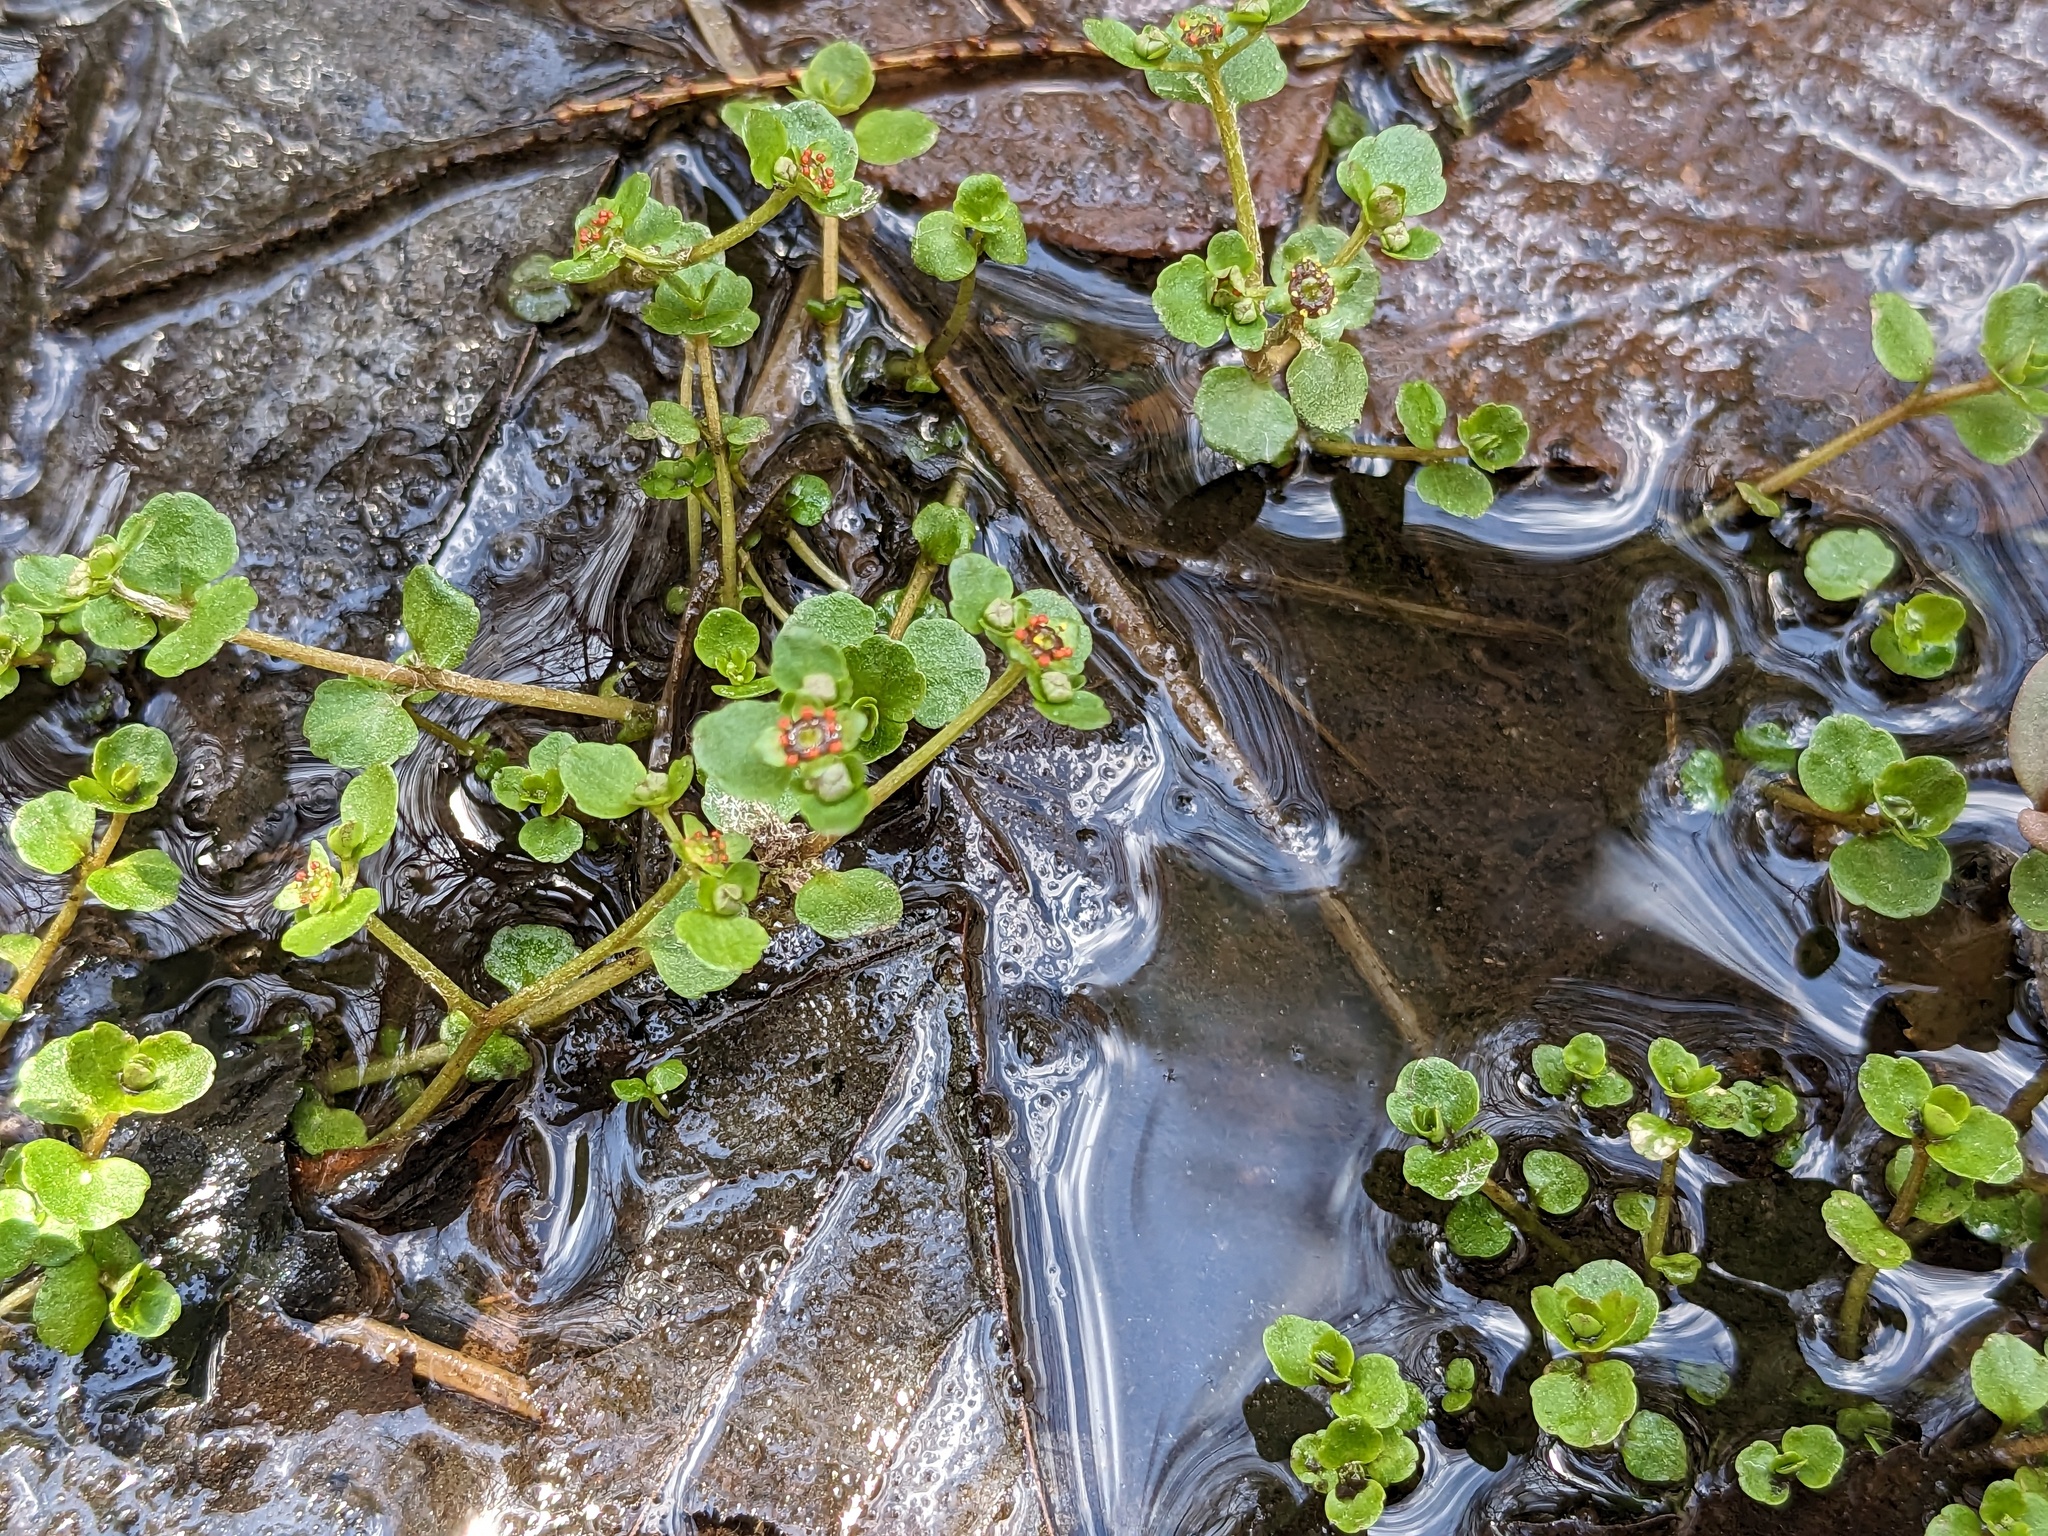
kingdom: Plantae
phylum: Tracheophyta
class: Magnoliopsida
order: Saxifragales
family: Saxifragaceae
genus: Chrysosplenium
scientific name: Chrysosplenium americanum
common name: American golden-saxifrage
